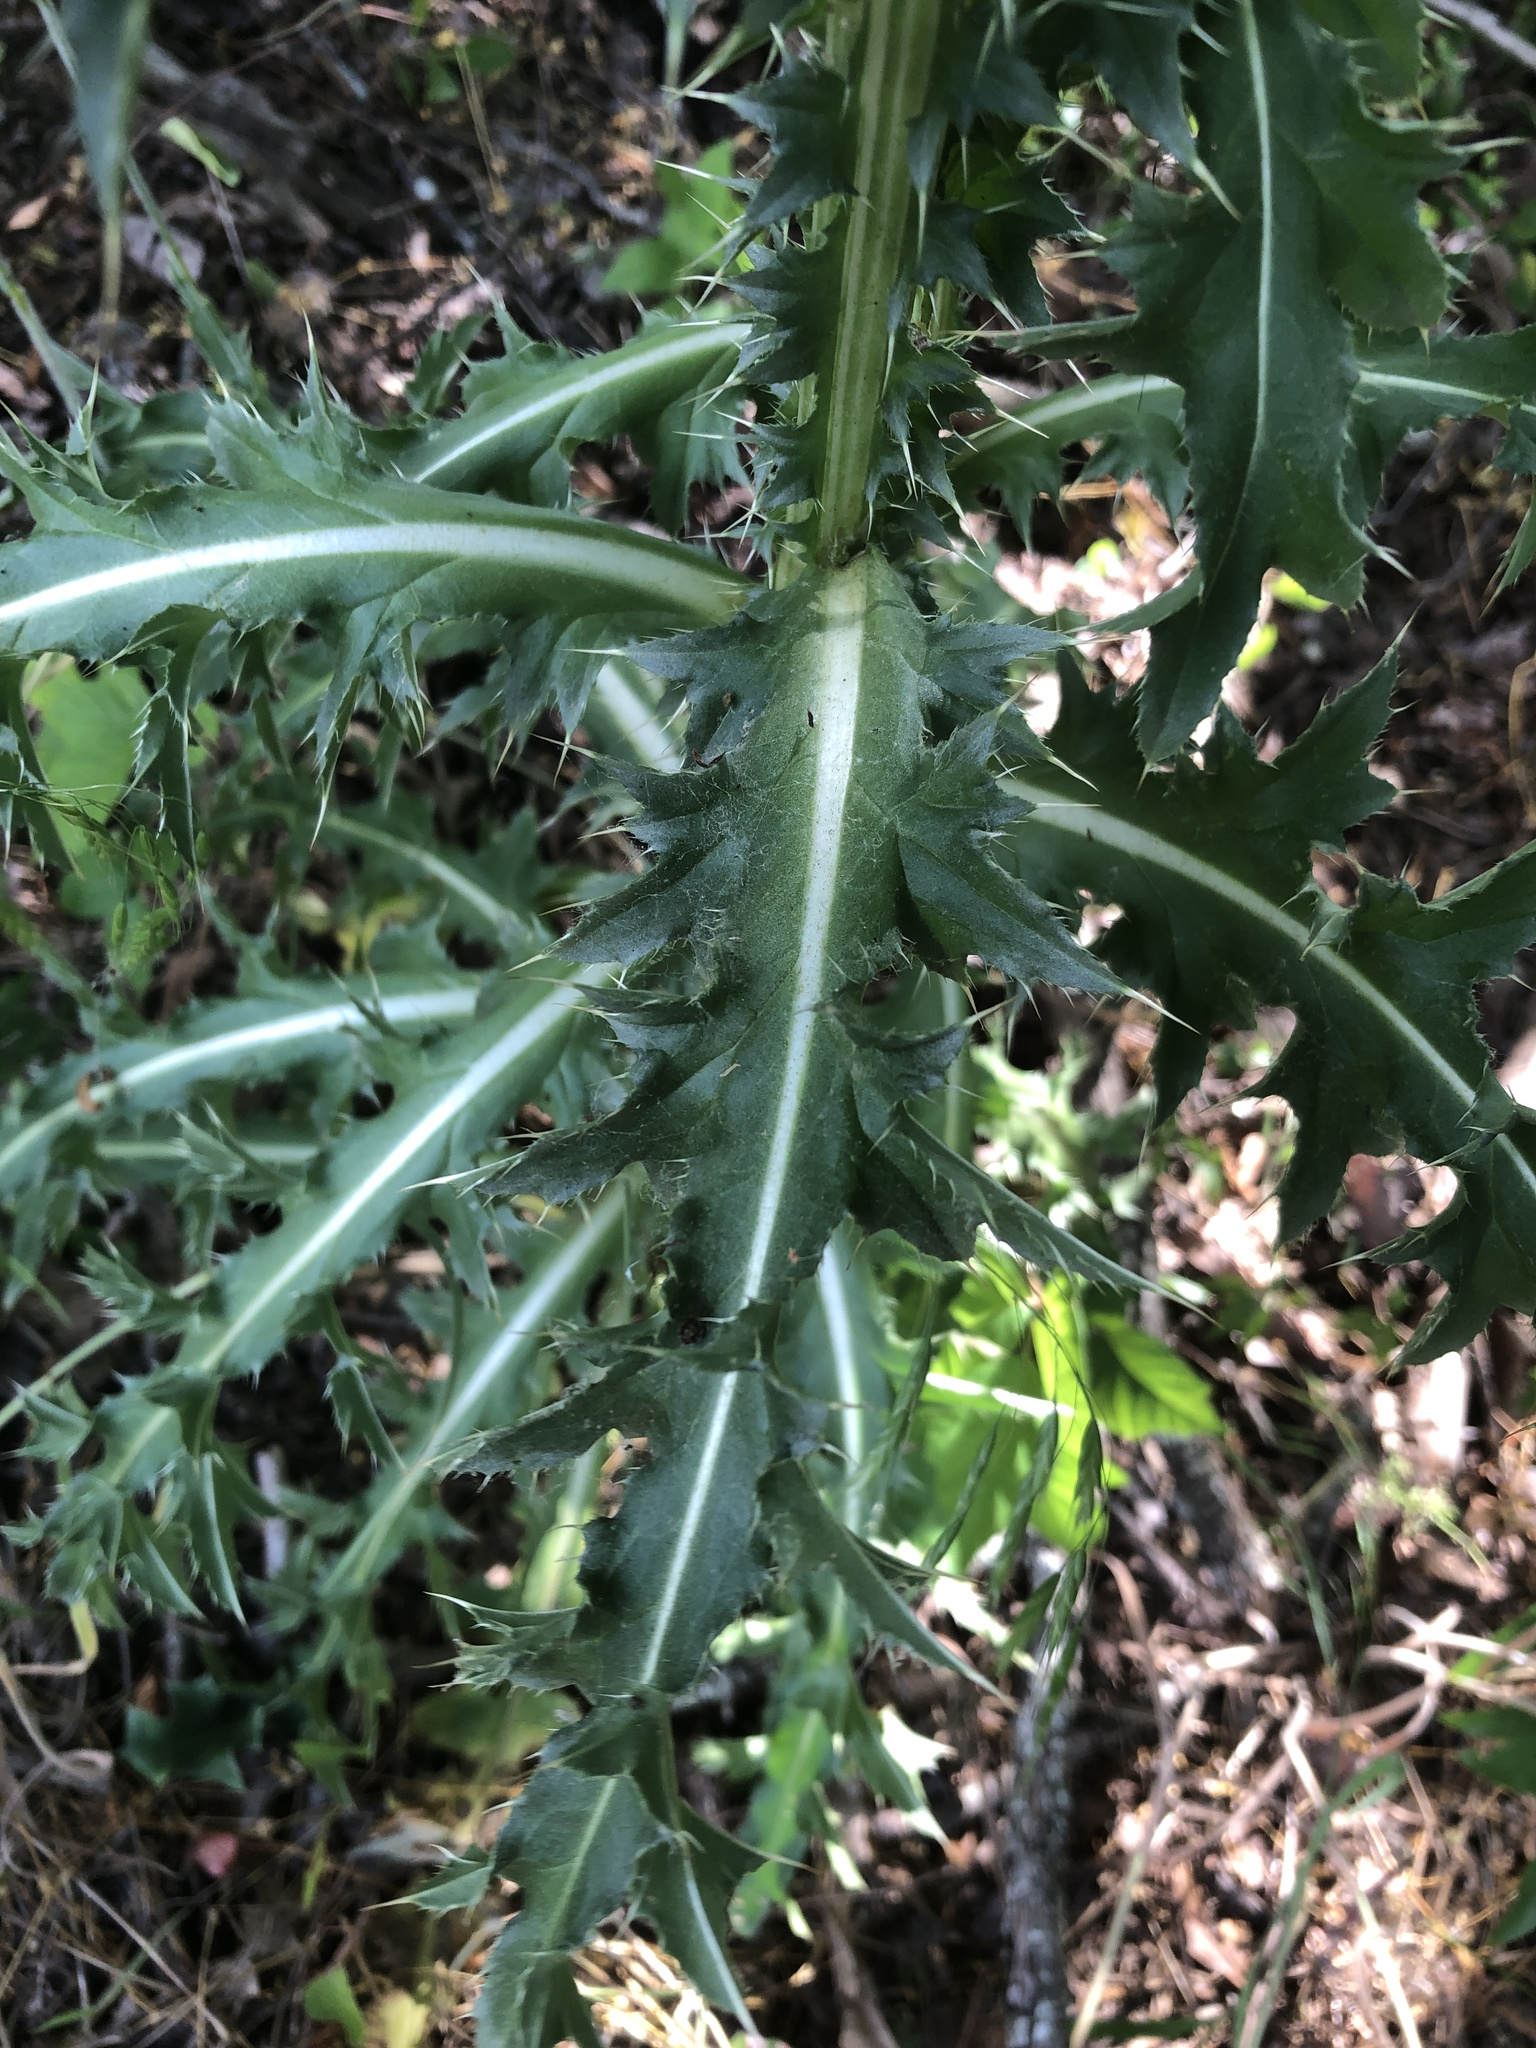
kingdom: Plantae
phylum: Tracheophyta
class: Magnoliopsida
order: Asterales
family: Asteraceae
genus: Carduus
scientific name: Carduus nutans
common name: Musk thistle
